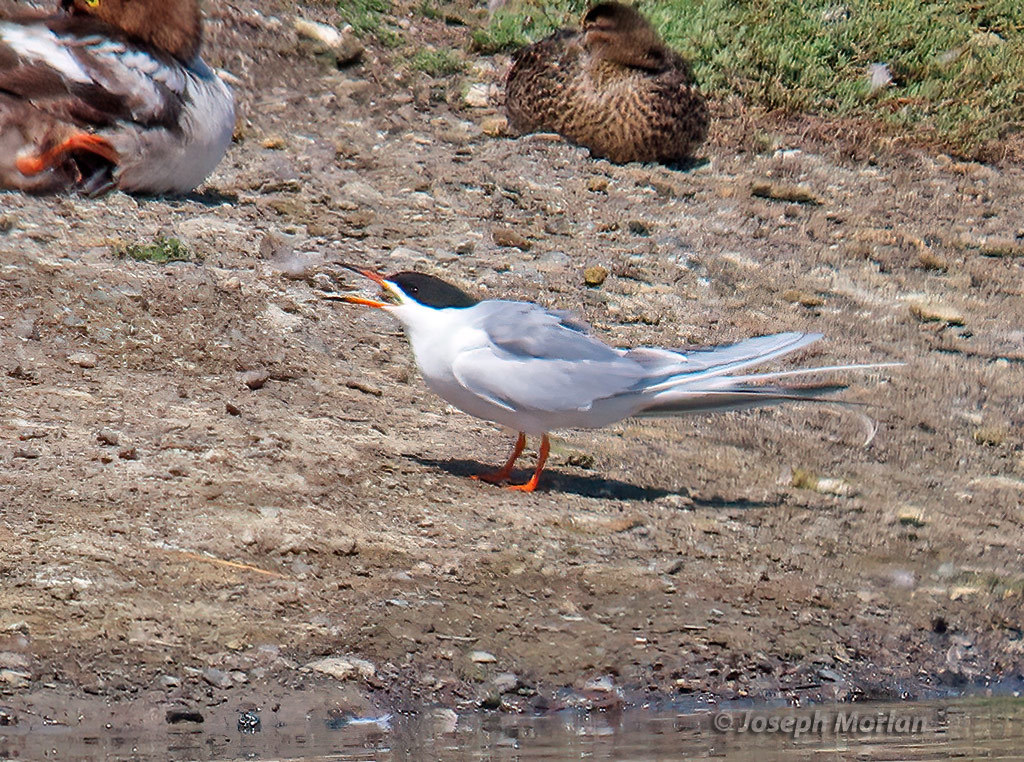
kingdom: Animalia
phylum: Chordata
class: Aves
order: Charadriiformes
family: Laridae
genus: Sterna
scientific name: Sterna forsteri
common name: Forster's tern
